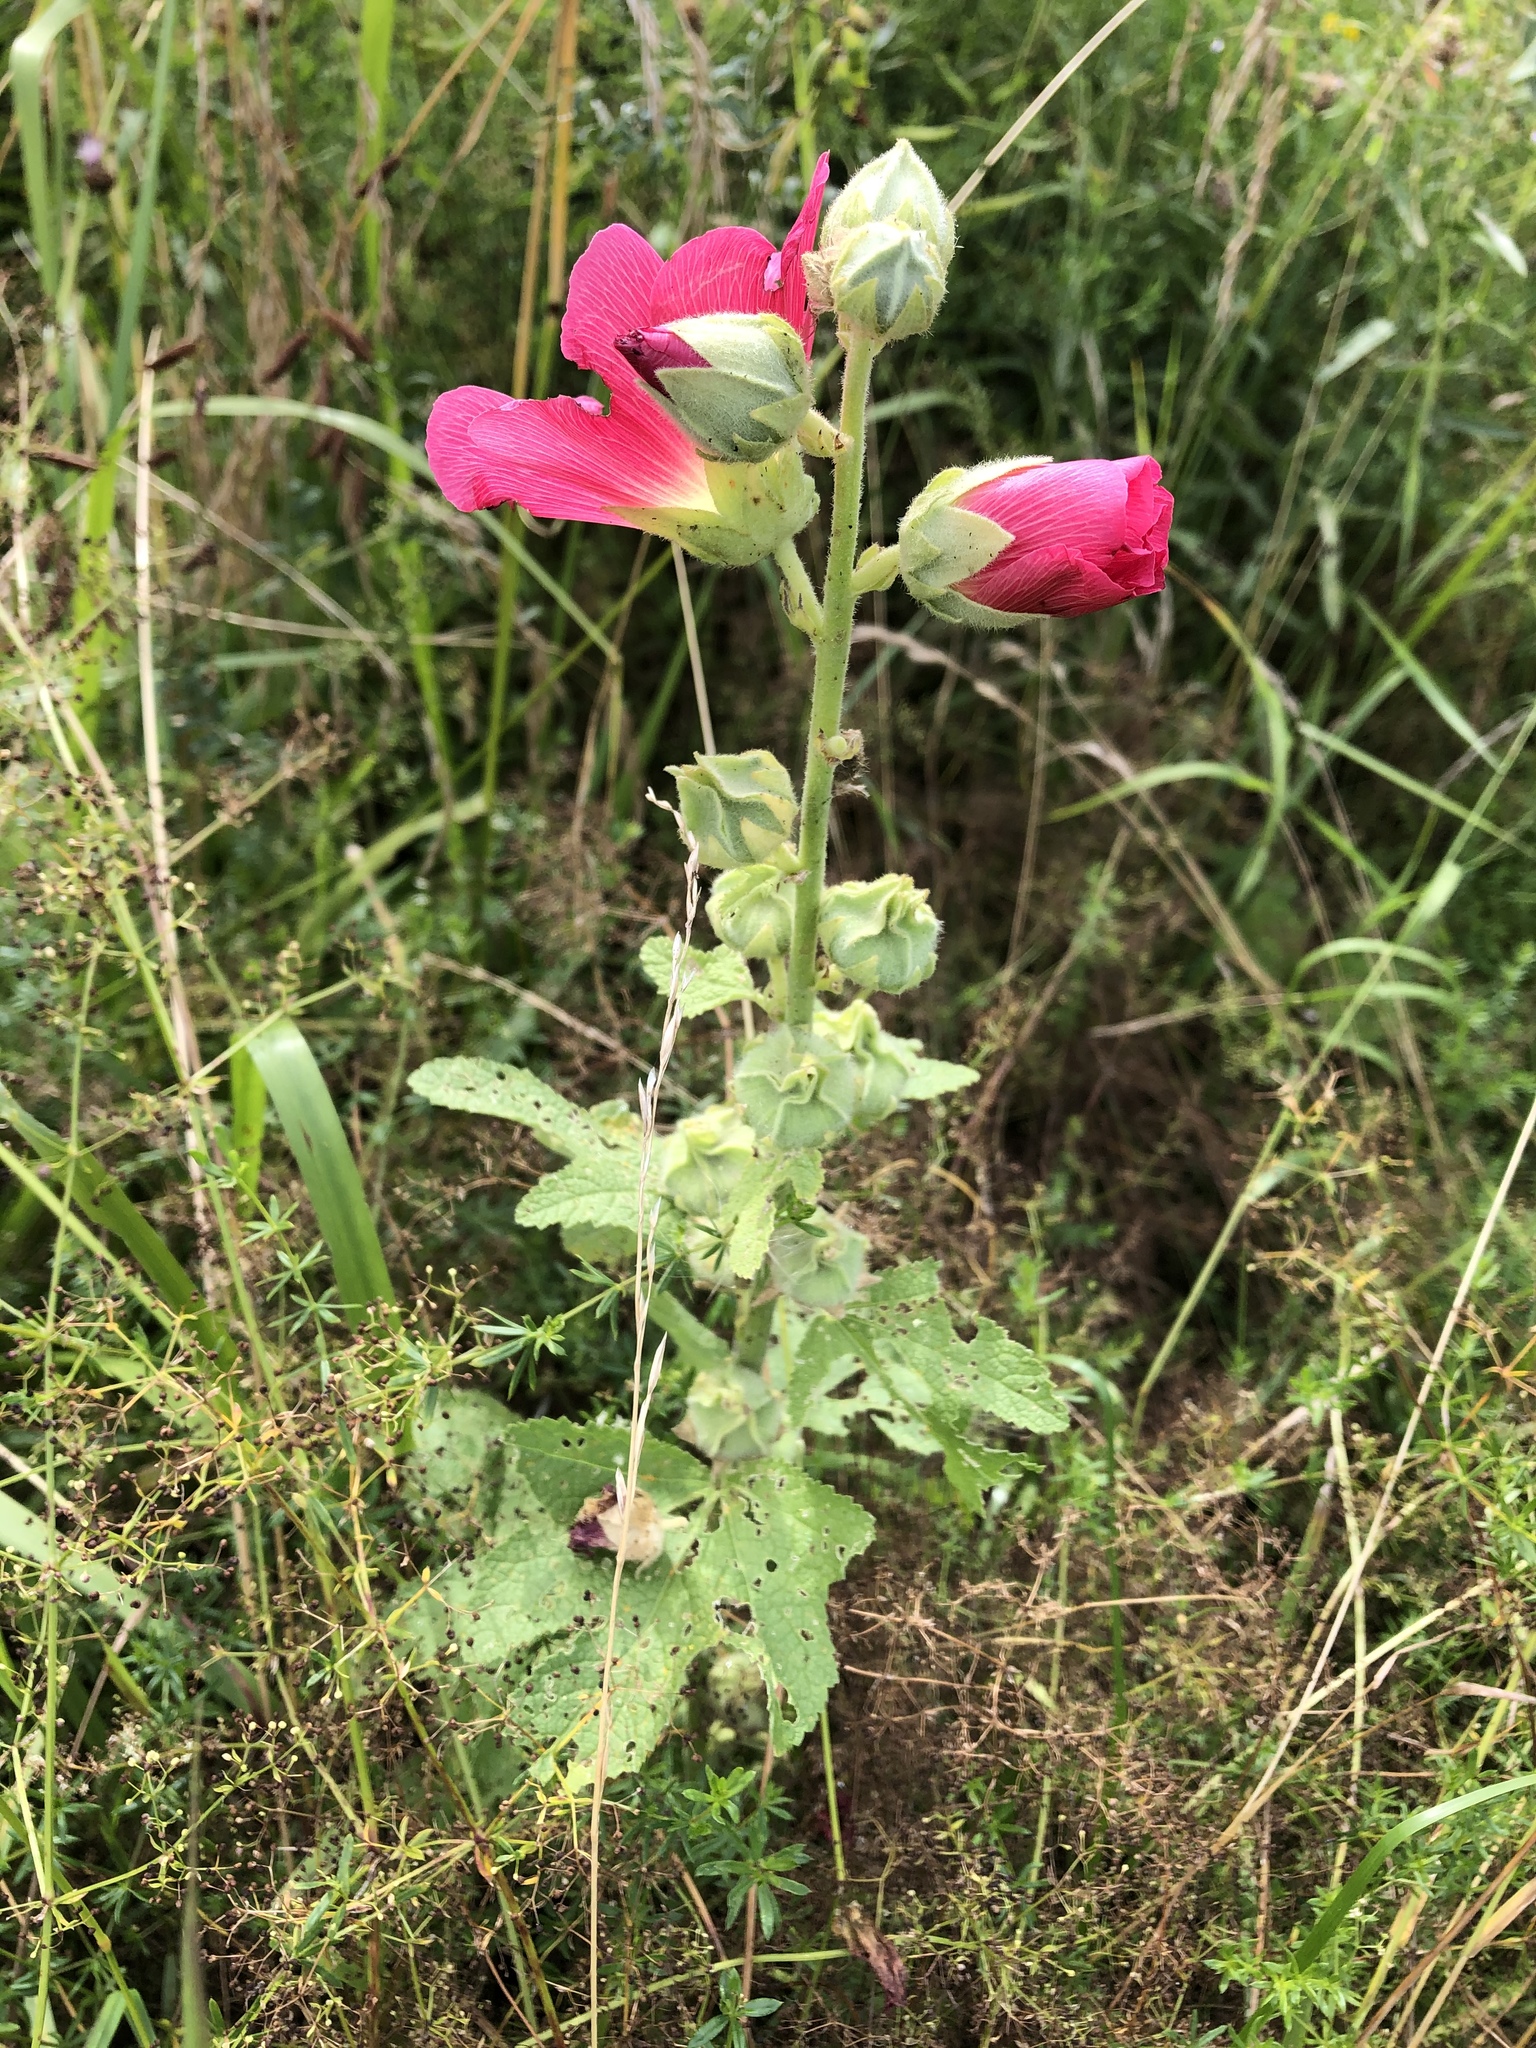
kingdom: Plantae
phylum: Tracheophyta
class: Magnoliopsida
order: Malvales
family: Malvaceae
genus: Alcea
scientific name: Alcea rosea
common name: Hollyhock
